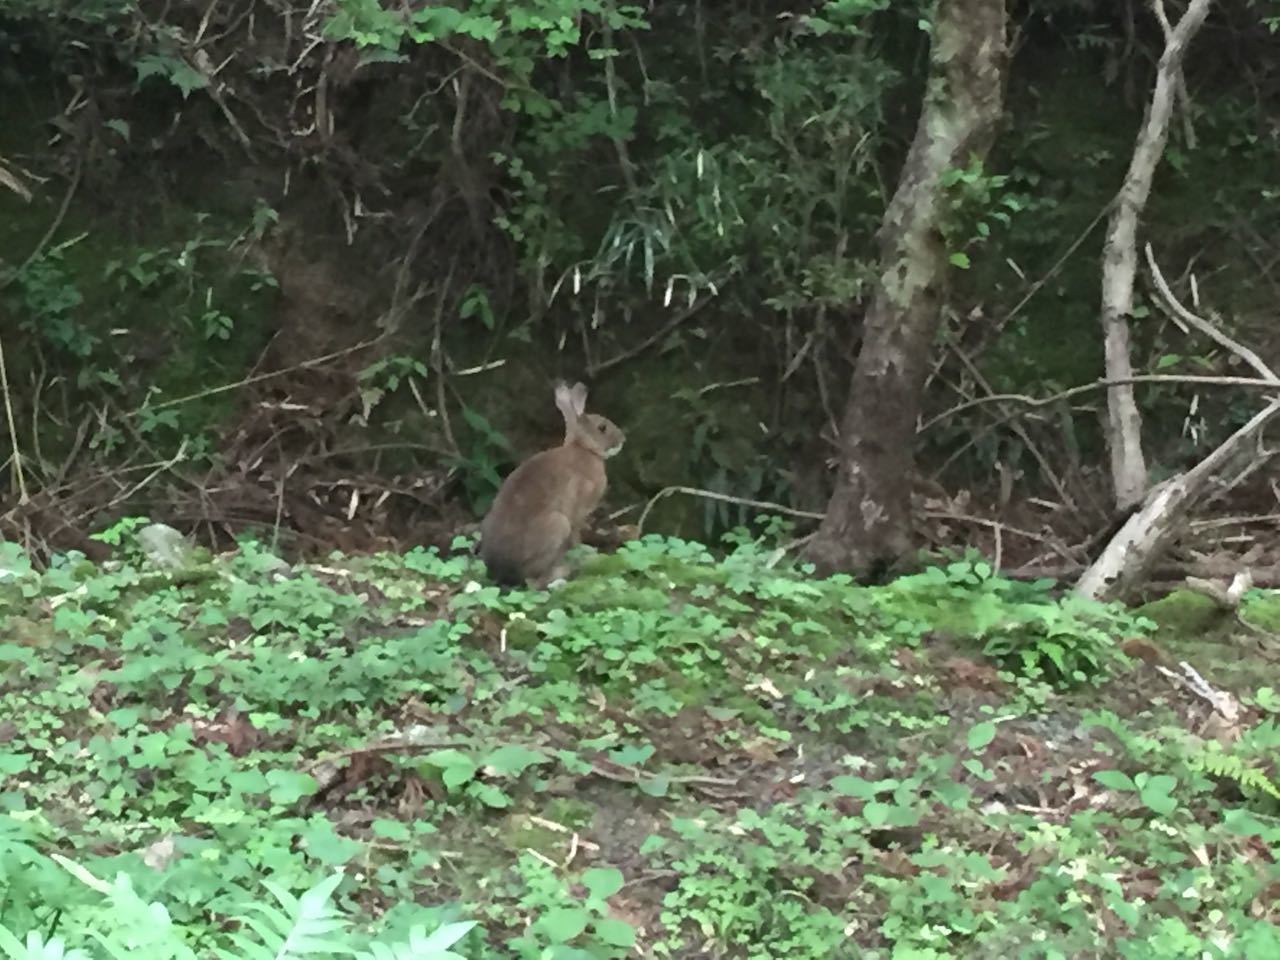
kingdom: Animalia
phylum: Chordata
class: Mammalia
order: Lagomorpha
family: Leporidae
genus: Lepus
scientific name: Lepus brachyurus
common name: Japanese hare
